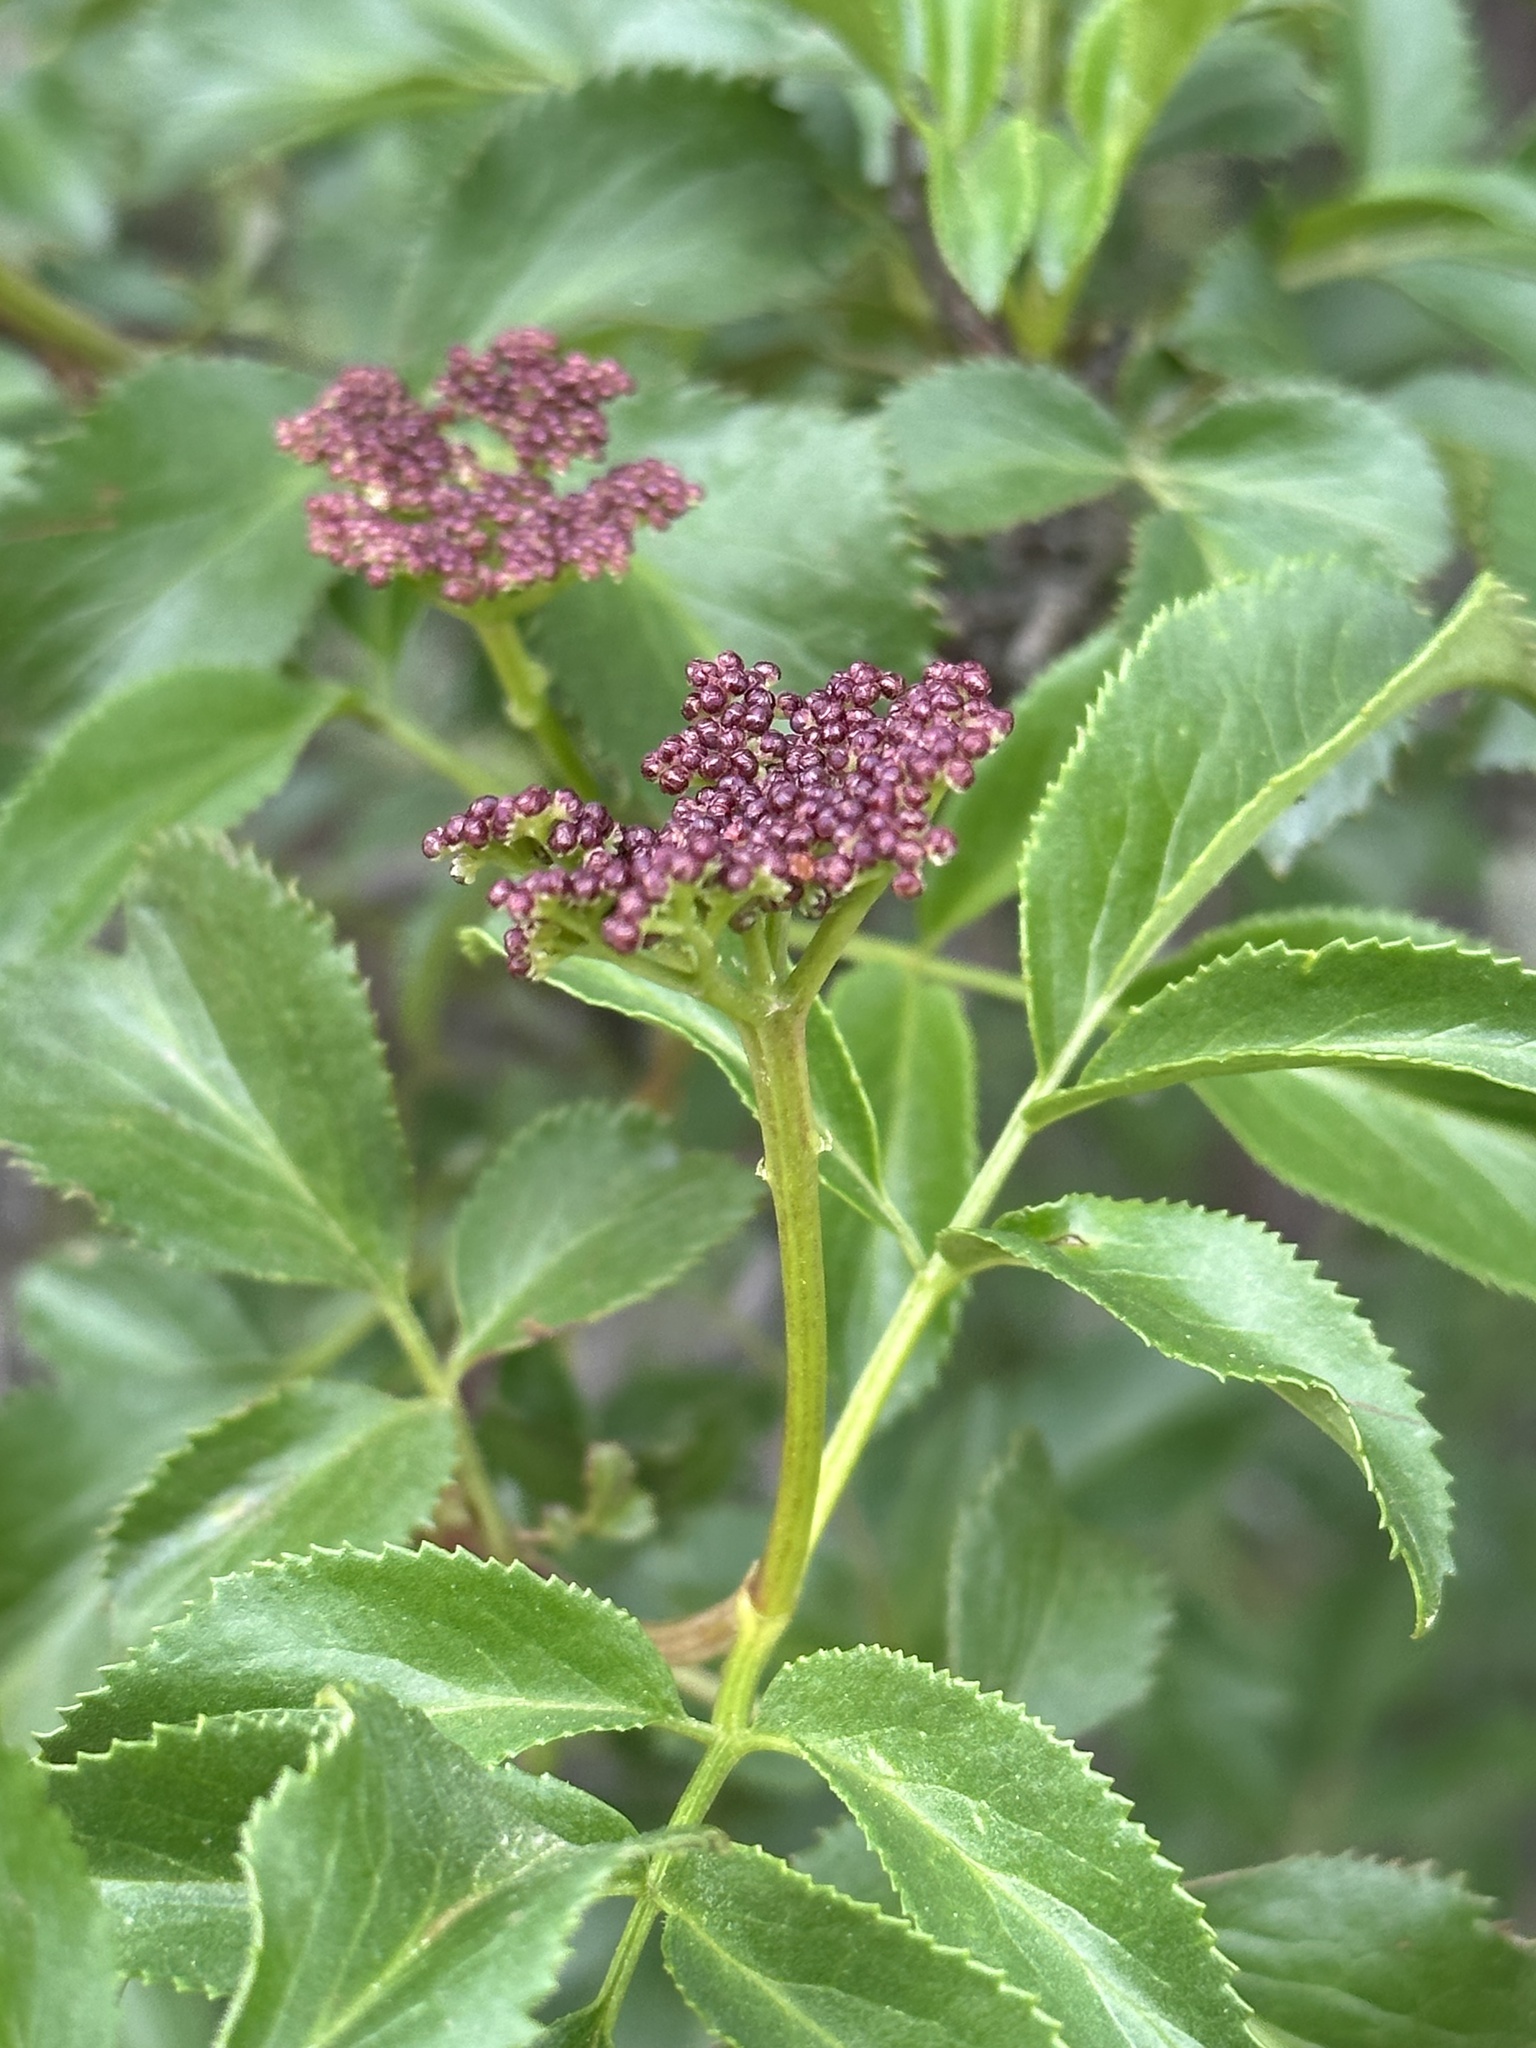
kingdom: Plantae
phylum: Tracheophyta
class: Magnoliopsida
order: Dipsacales
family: Viburnaceae
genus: Sambucus
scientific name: Sambucus cerulea
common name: Blue elder
